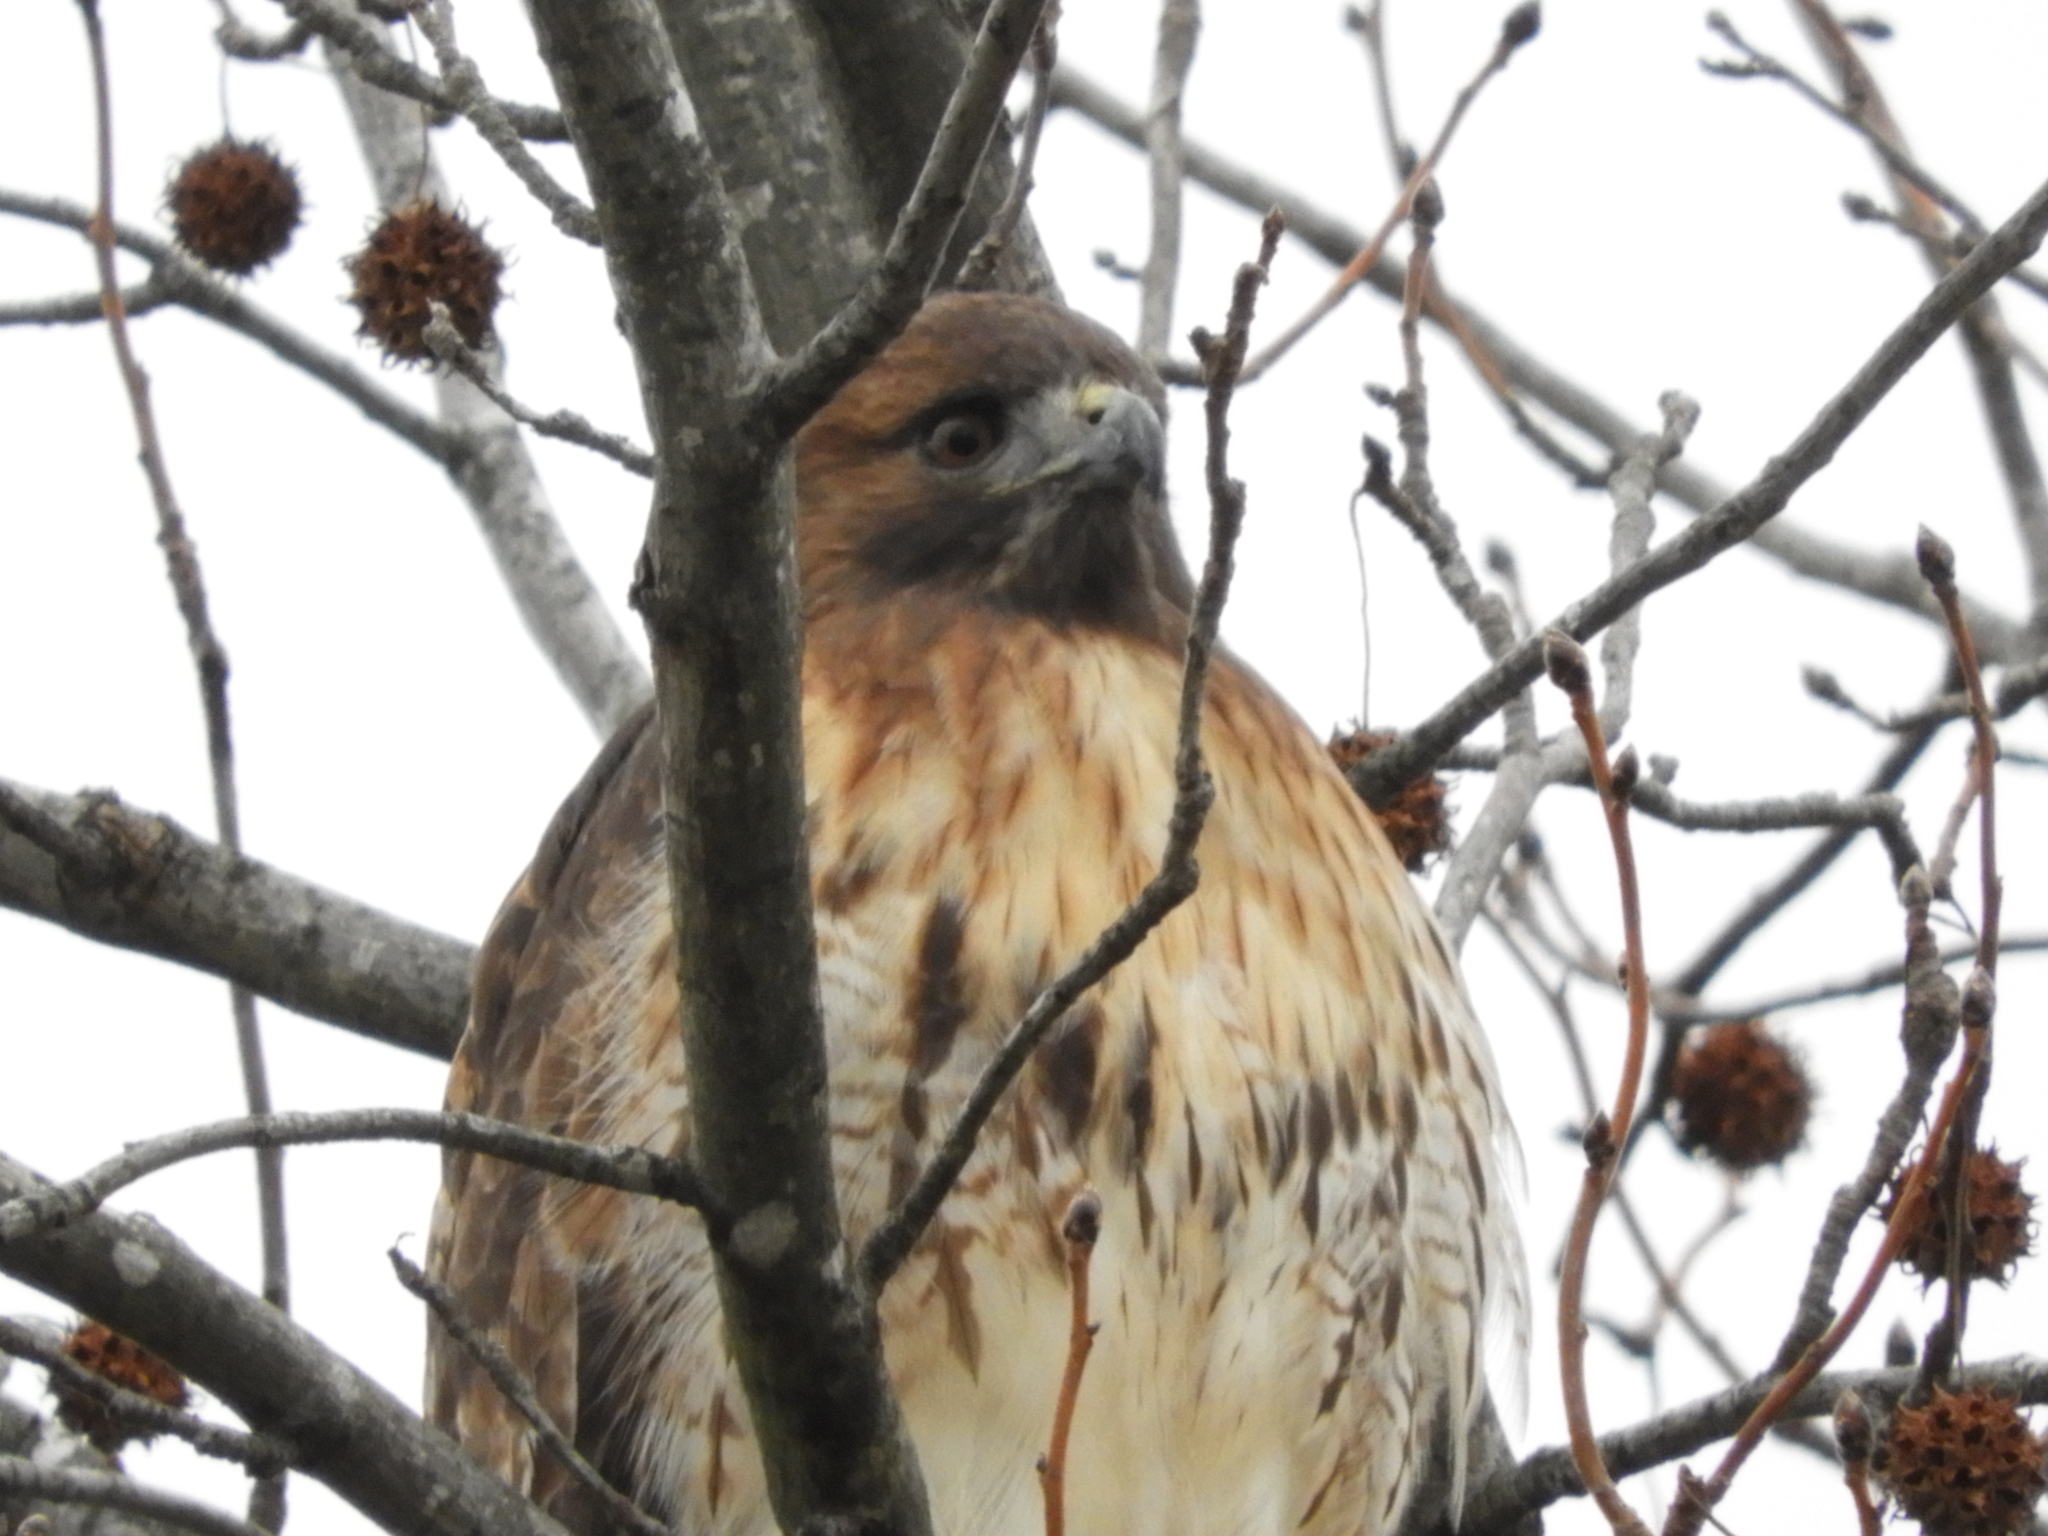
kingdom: Animalia
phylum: Chordata
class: Aves
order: Accipitriformes
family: Accipitridae
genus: Buteo
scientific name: Buteo jamaicensis
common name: Red-tailed hawk
